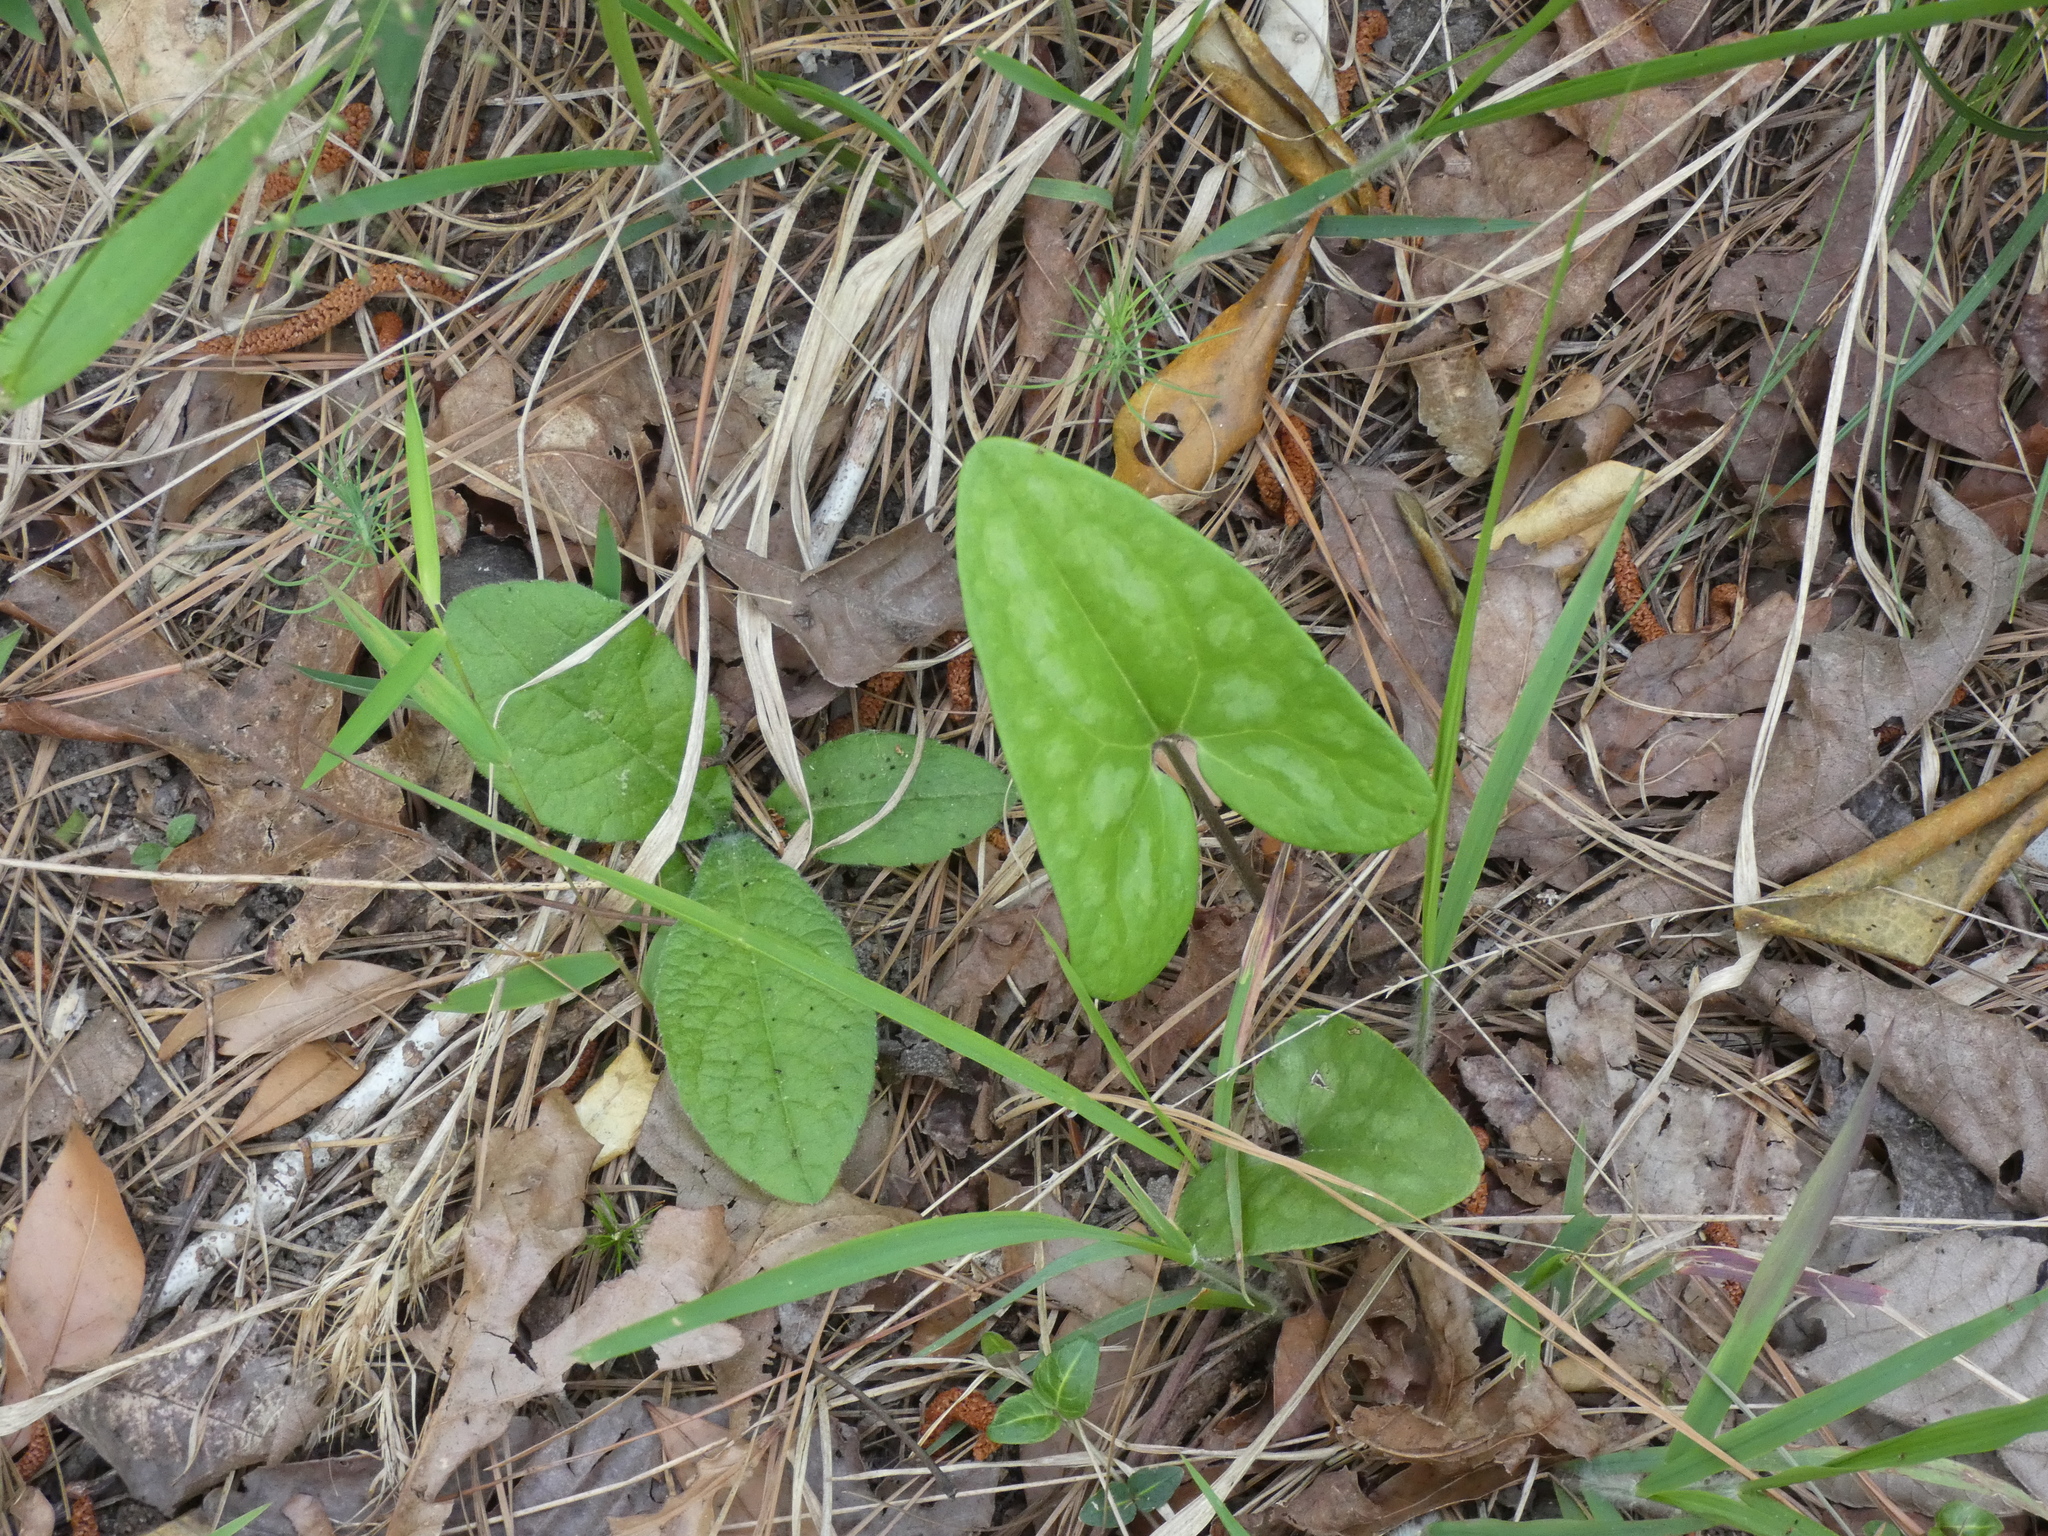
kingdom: Plantae
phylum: Tracheophyta
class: Magnoliopsida
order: Piperales
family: Aristolochiaceae
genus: Hexastylis
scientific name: Hexastylis arifolia
